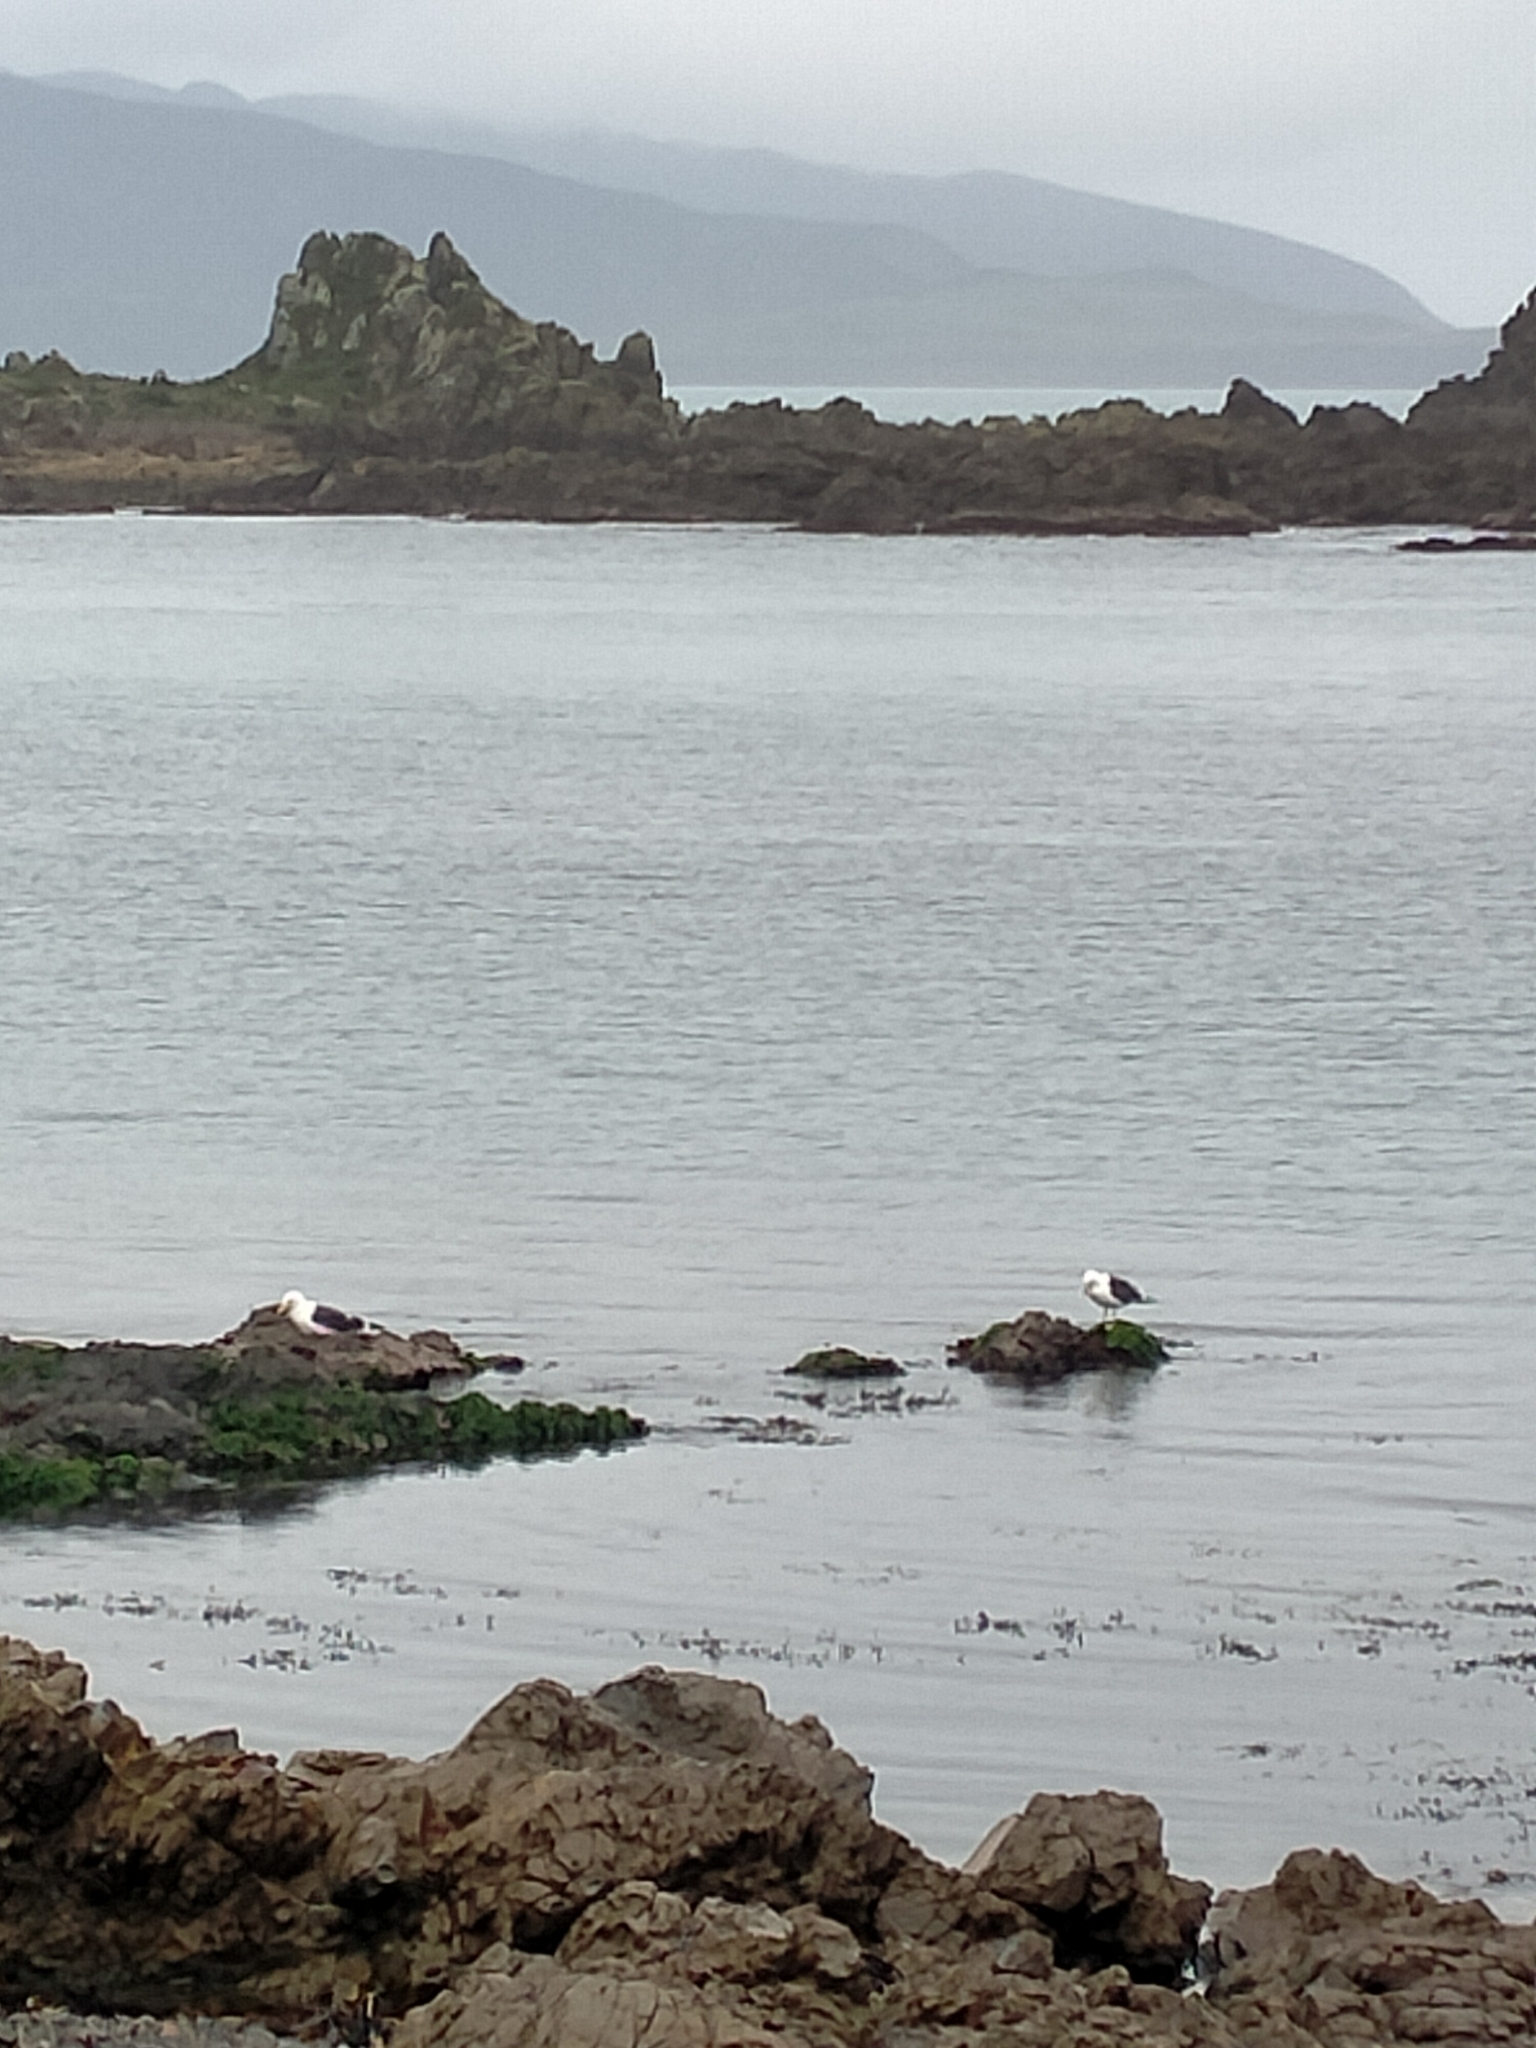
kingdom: Animalia
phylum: Chordata
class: Aves
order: Charadriiformes
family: Laridae
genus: Larus
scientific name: Larus dominicanus
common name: Kelp gull
